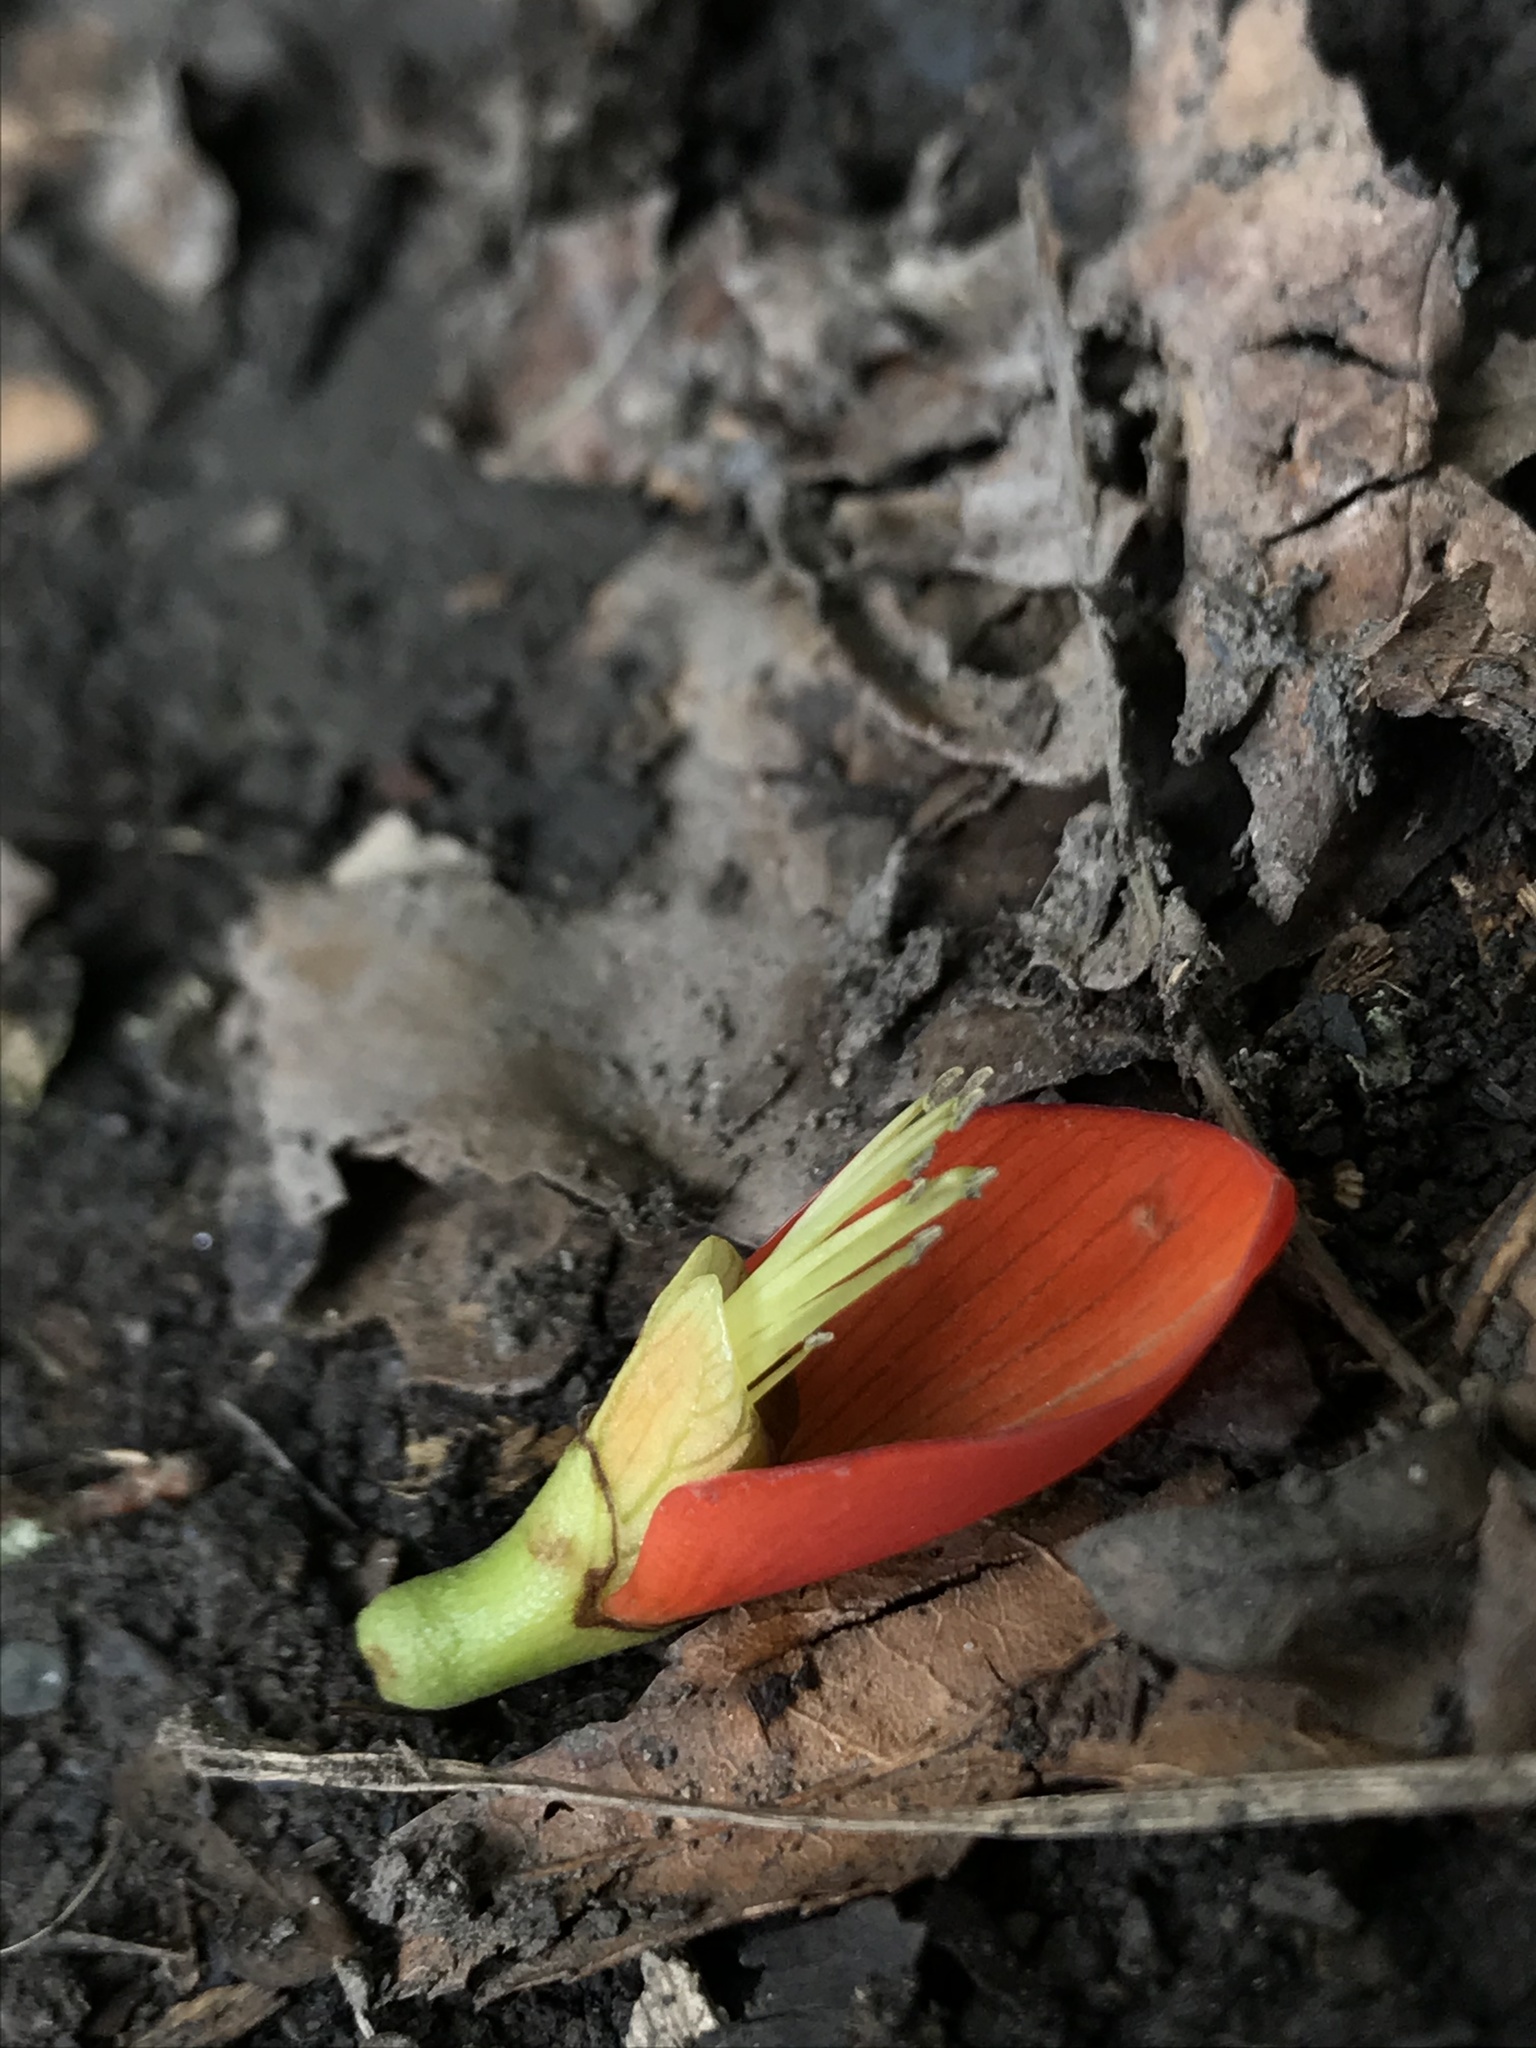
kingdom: Plantae
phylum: Tracheophyta
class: Magnoliopsida
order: Fabales
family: Fabaceae
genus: Erythrina
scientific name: Erythrina edulis
